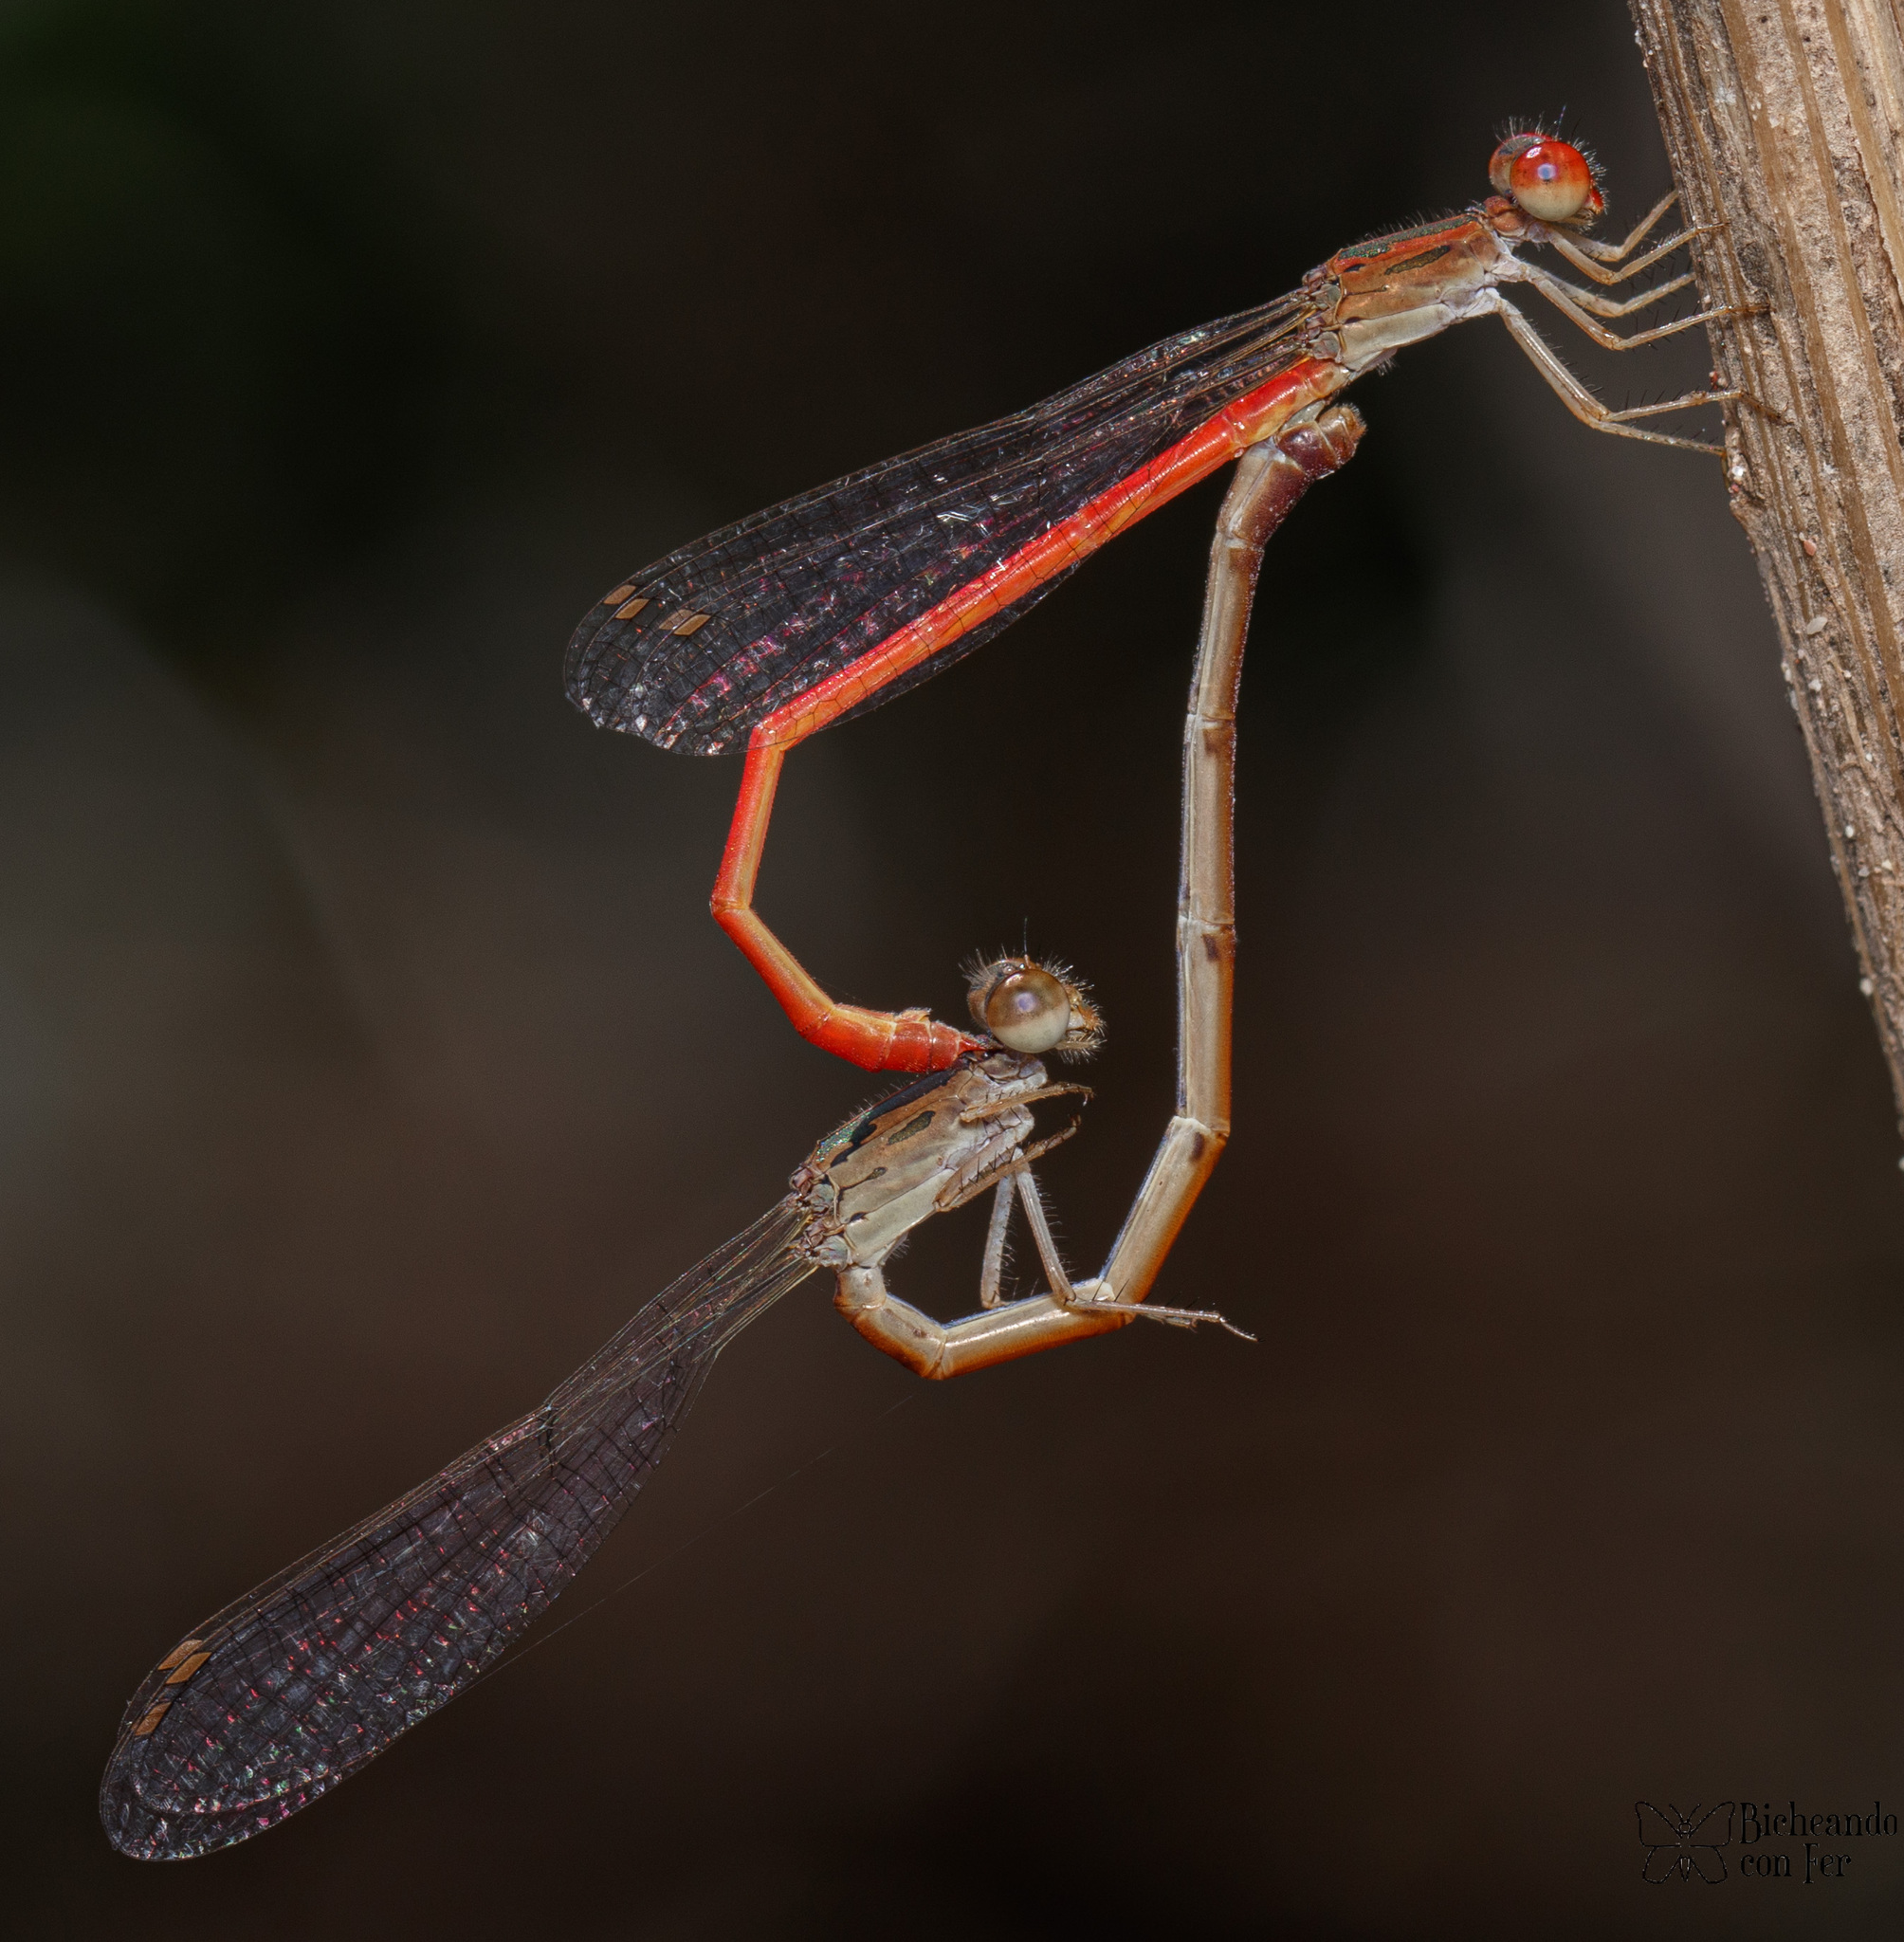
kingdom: Animalia
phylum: Arthropoda
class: Insecta
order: Odonata
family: Coenagrionidae
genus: Telebasis
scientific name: Telebasis salva
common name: Desert firetail
